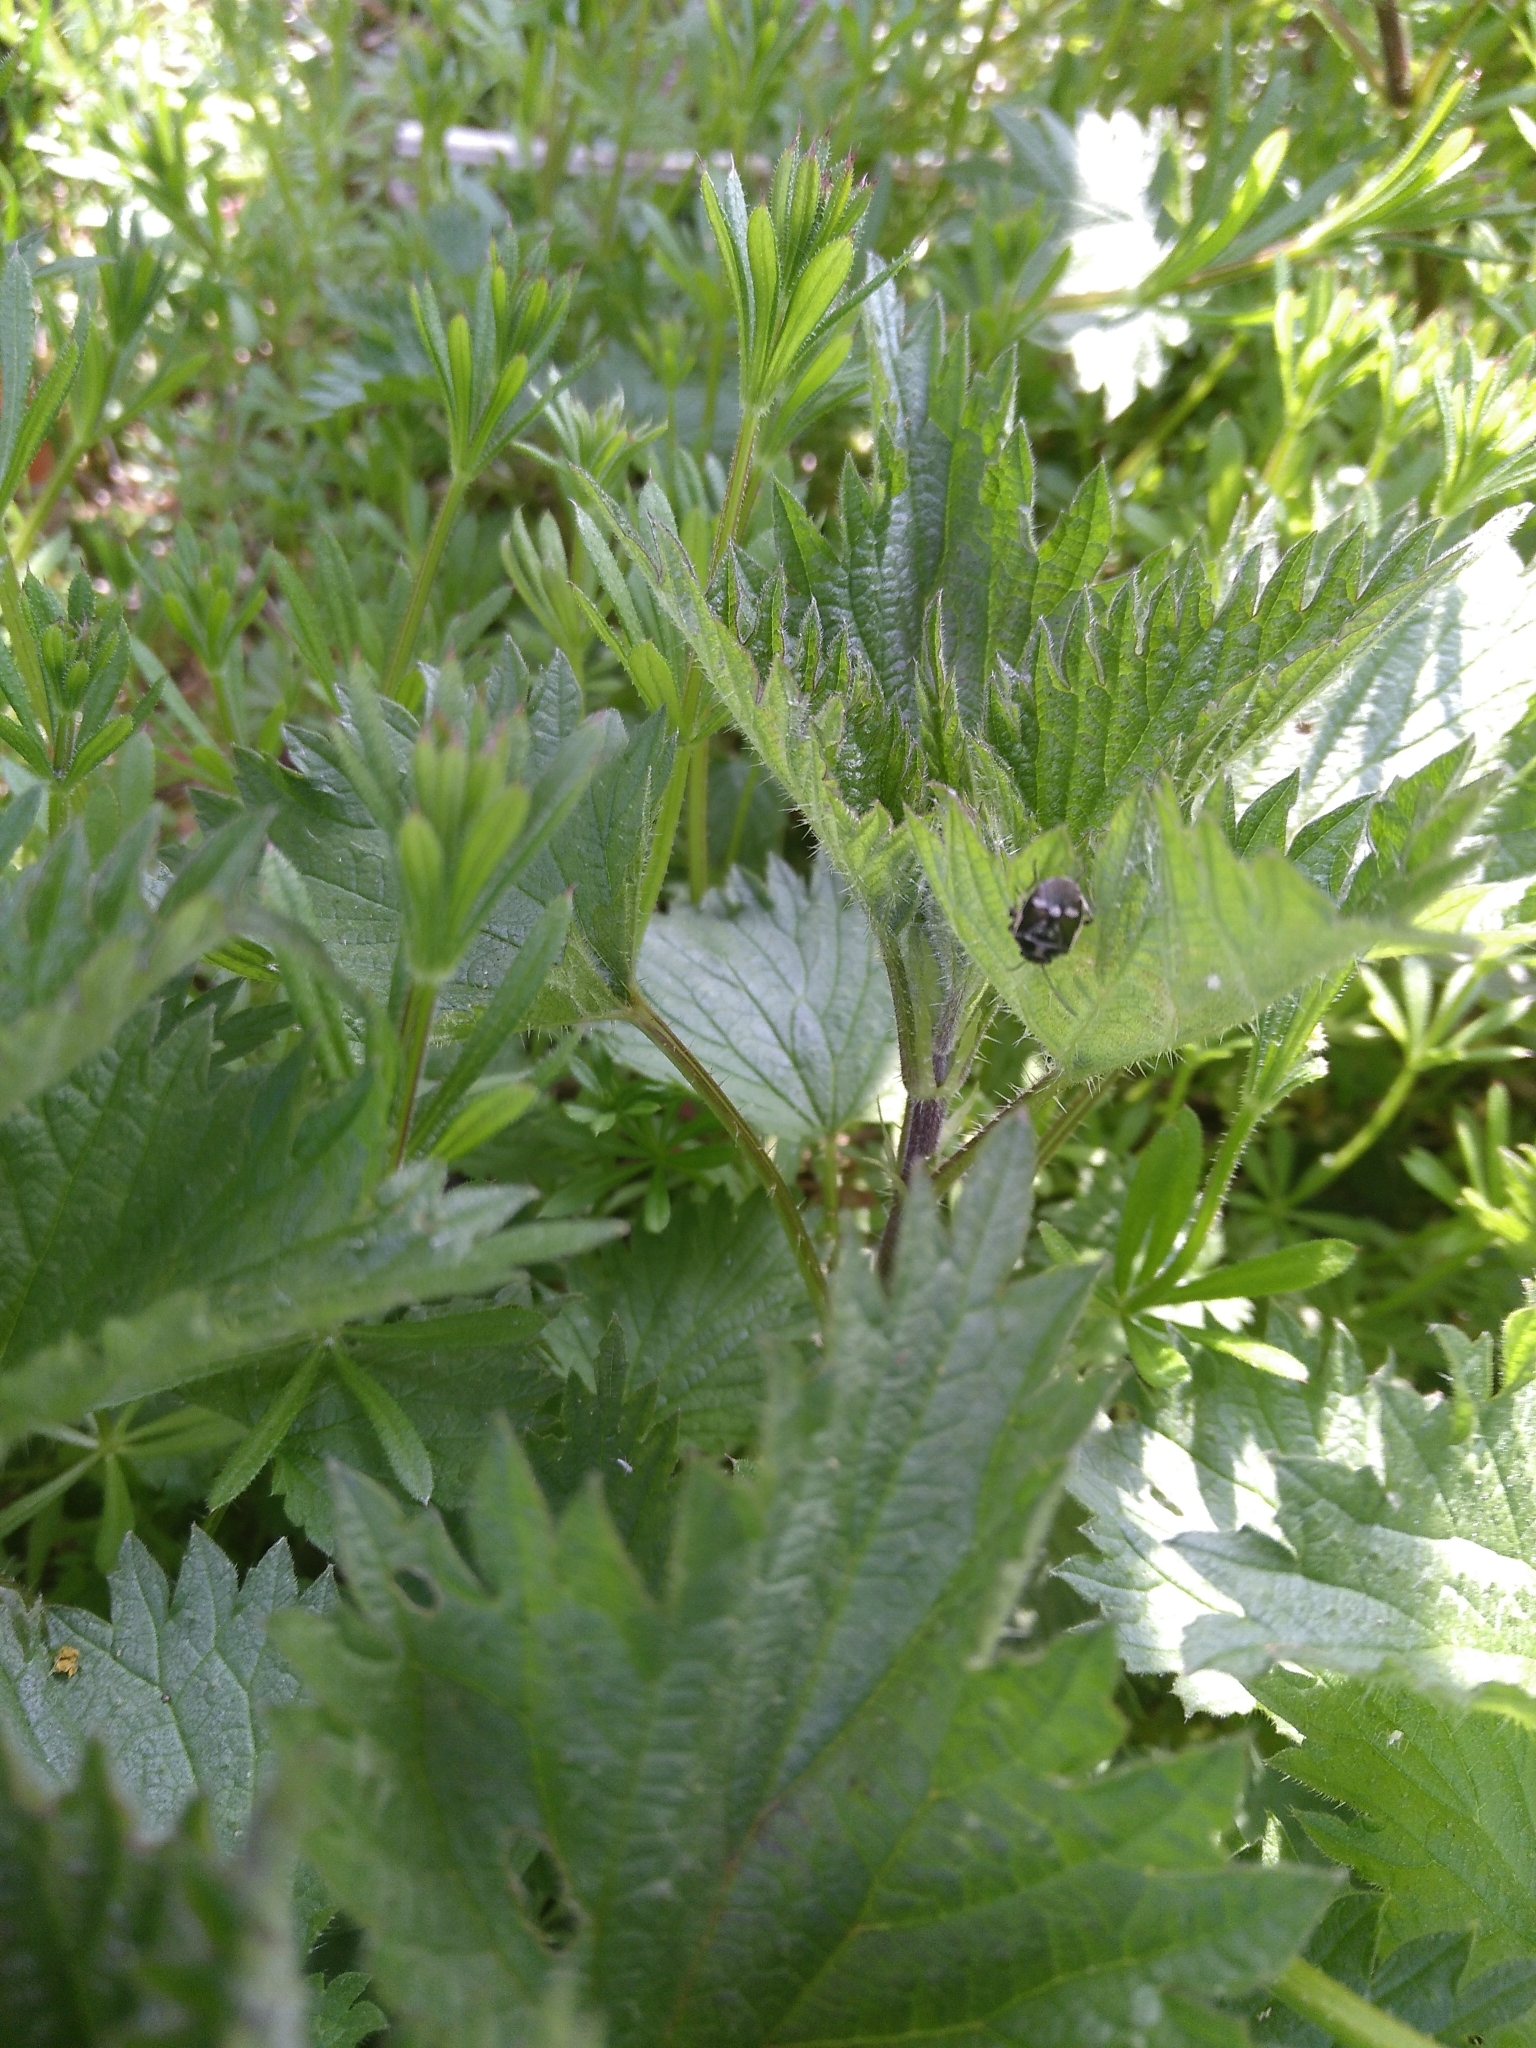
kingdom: Animalia
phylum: Arthropoda
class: Insecta
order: Hemiptera
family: Pentatomidae
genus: Eurydema
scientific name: Eurydema oleracea
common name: Cabbage bug
